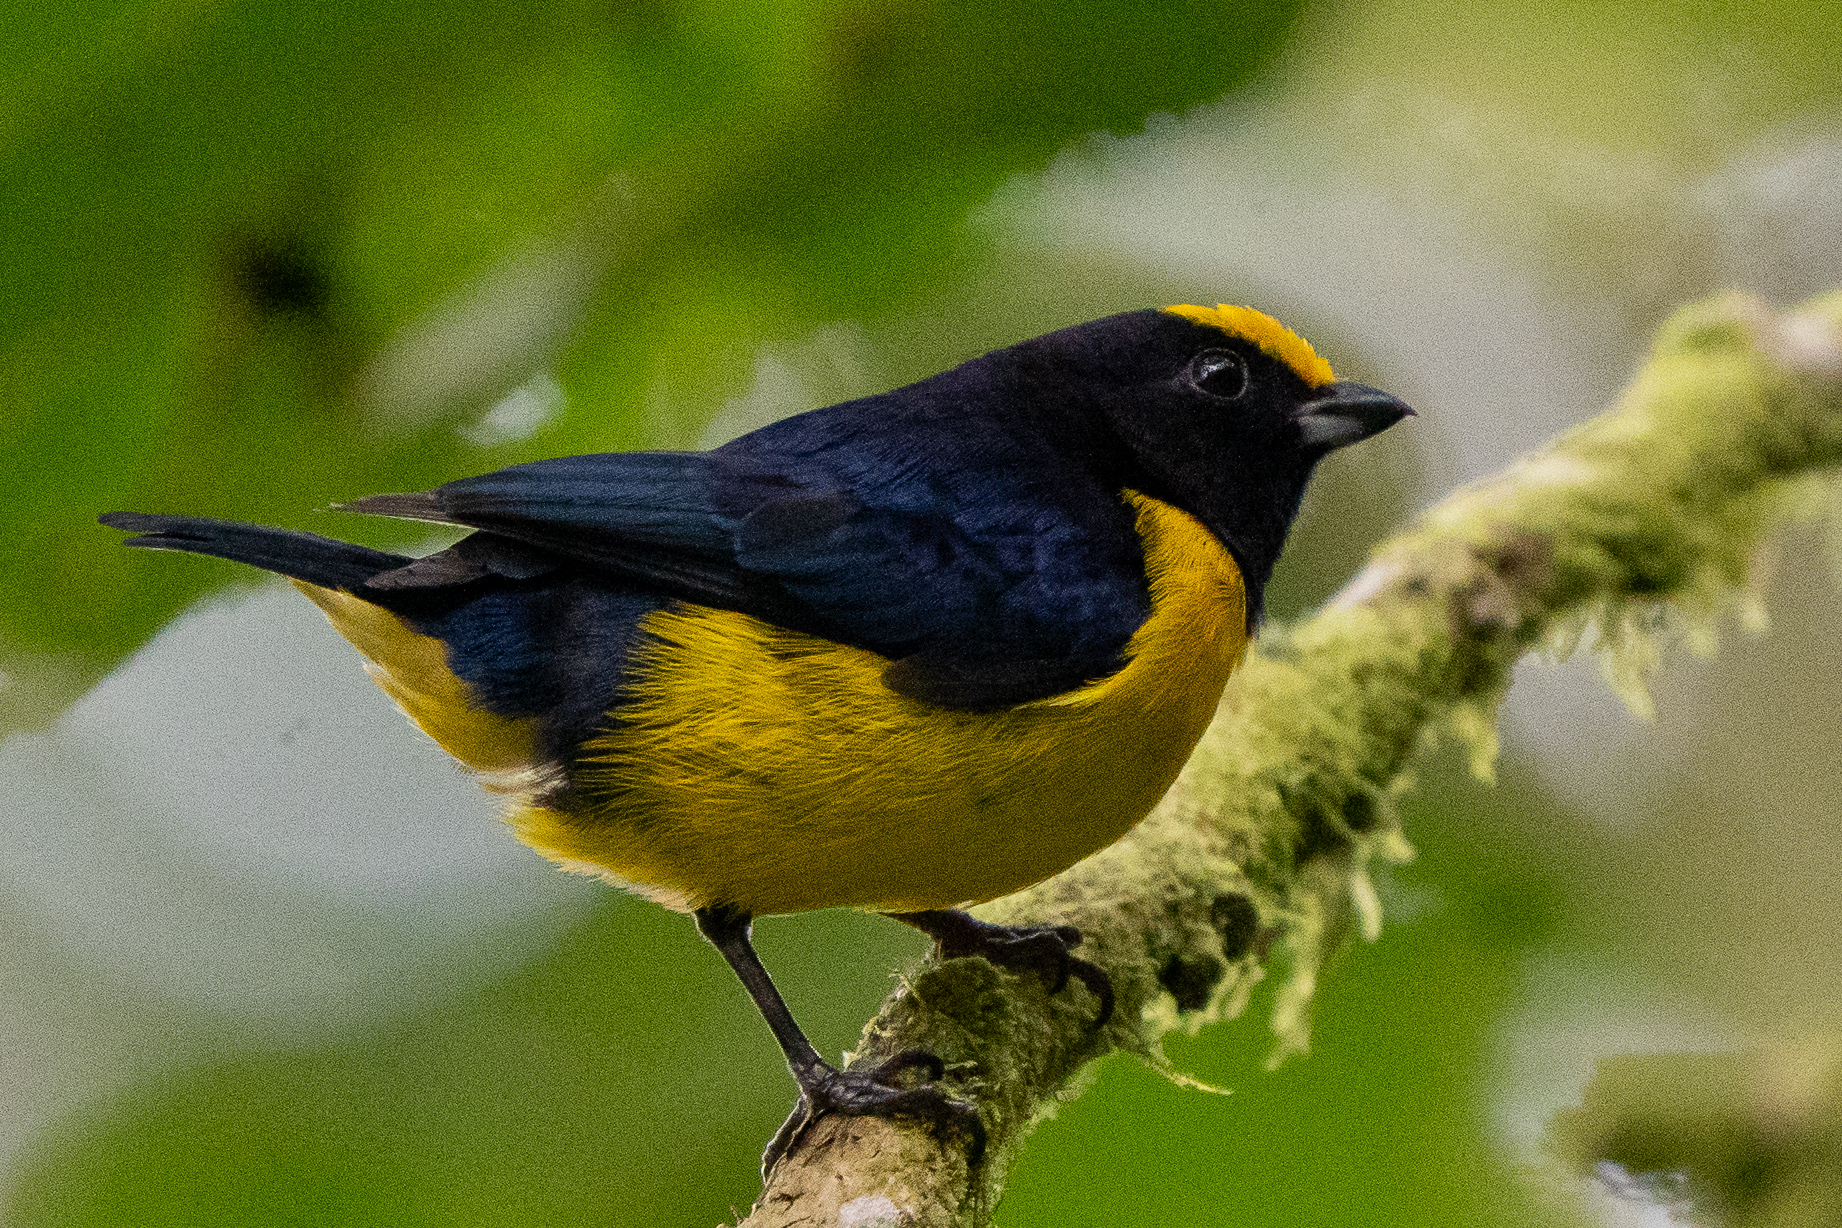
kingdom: Animalia
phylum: Chordata
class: Aves
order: Passeriformes
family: Fringillidae
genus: Euphonia
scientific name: Euphonia xanthogaster
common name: Orange-bellied euphonia
